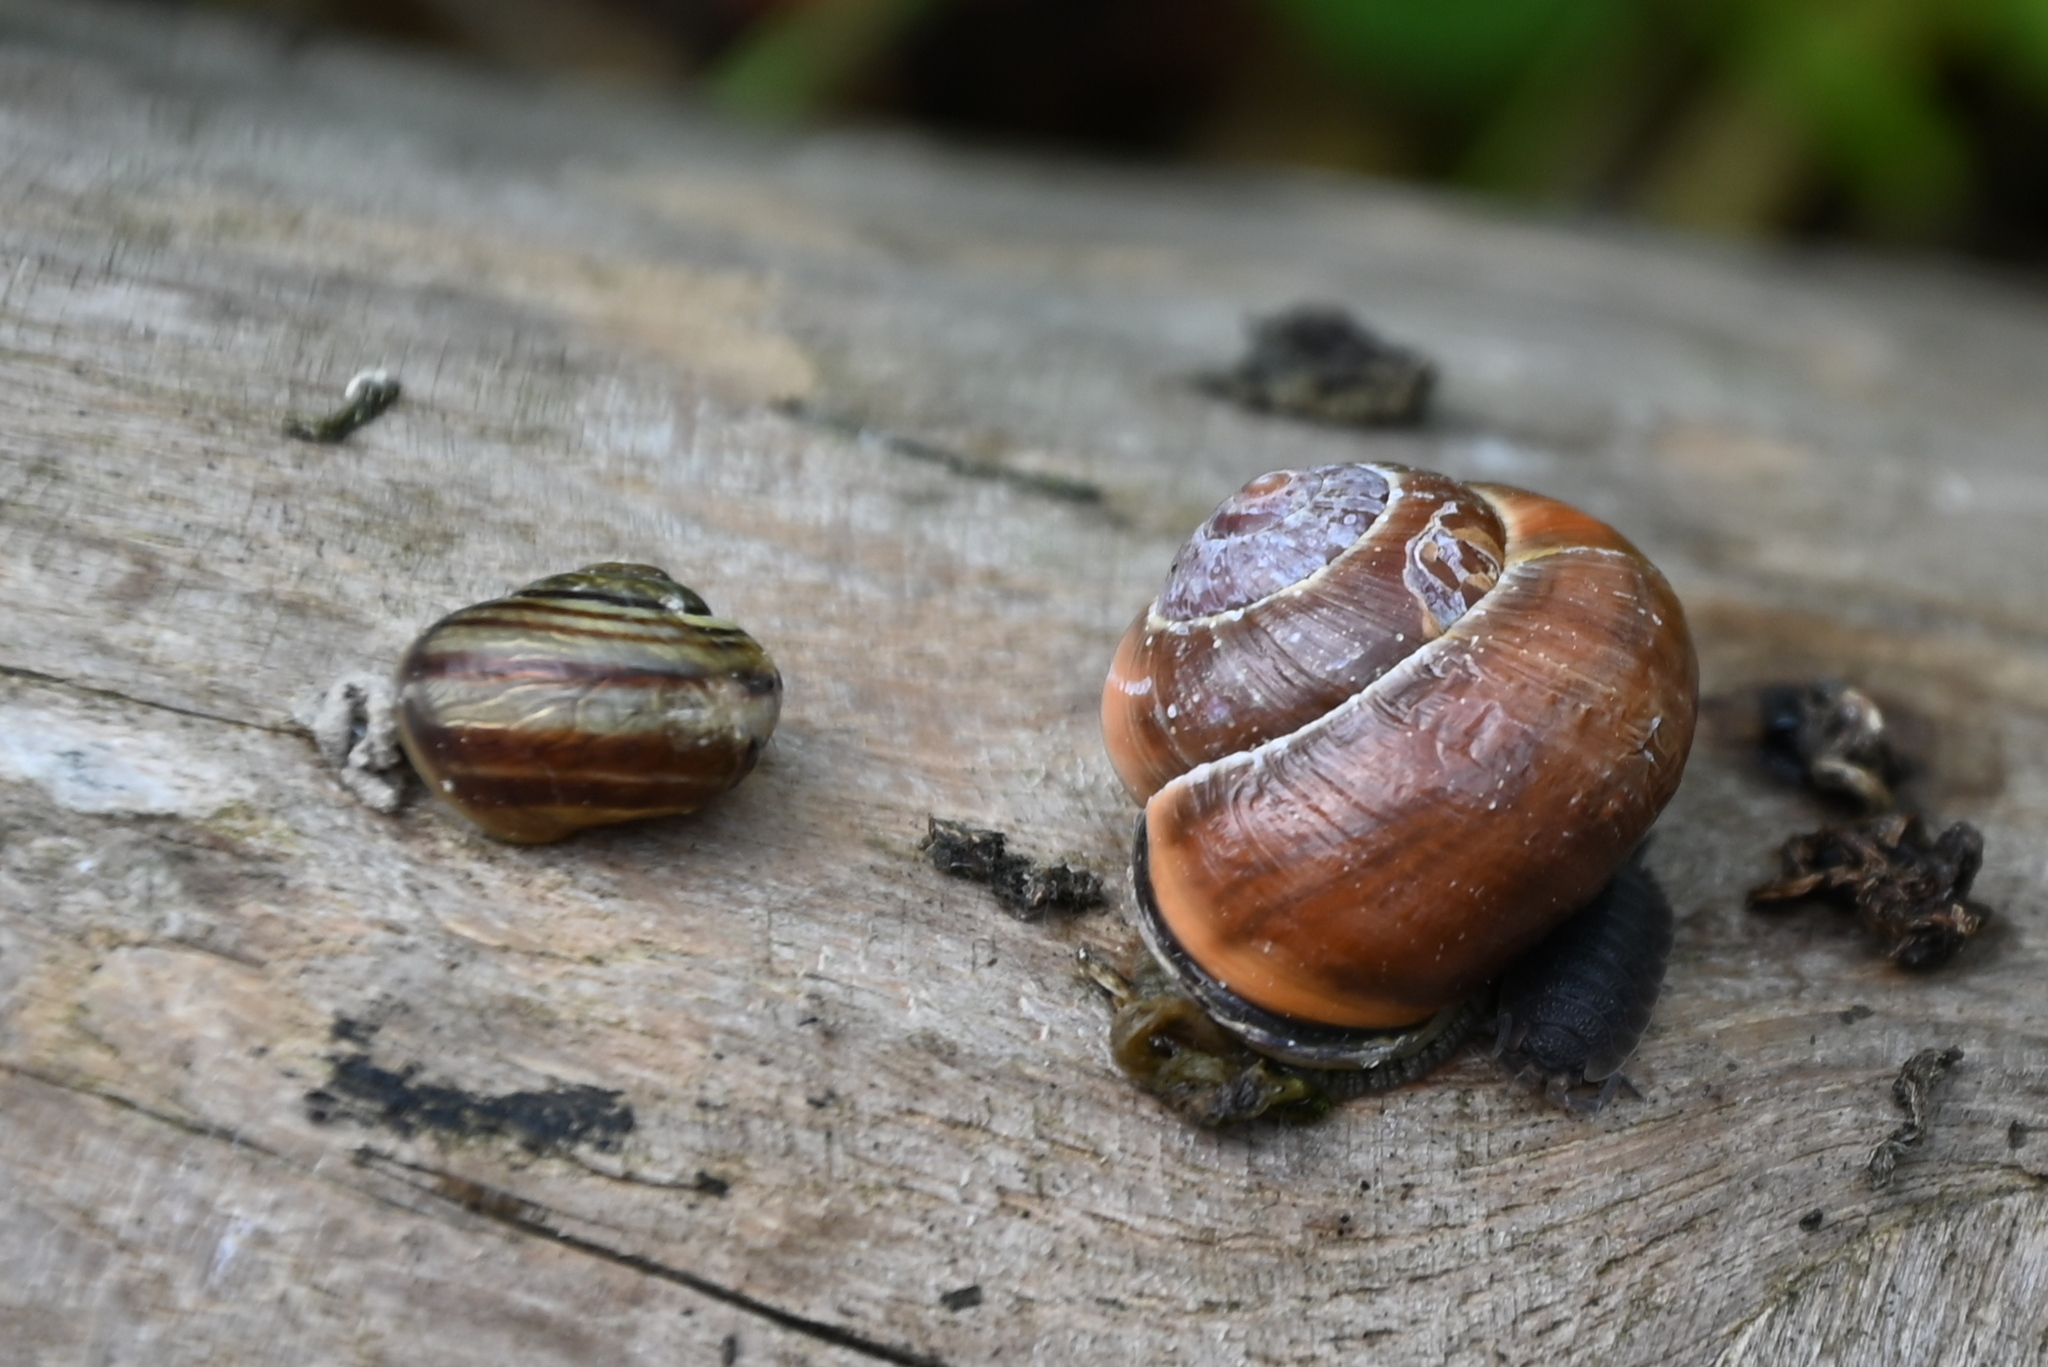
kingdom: Animalia
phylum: Mollusca
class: Gastropoda
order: Stylommatophora
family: Helicidae
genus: Cepaea
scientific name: Cepaea nemoralis
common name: Grovesnail
